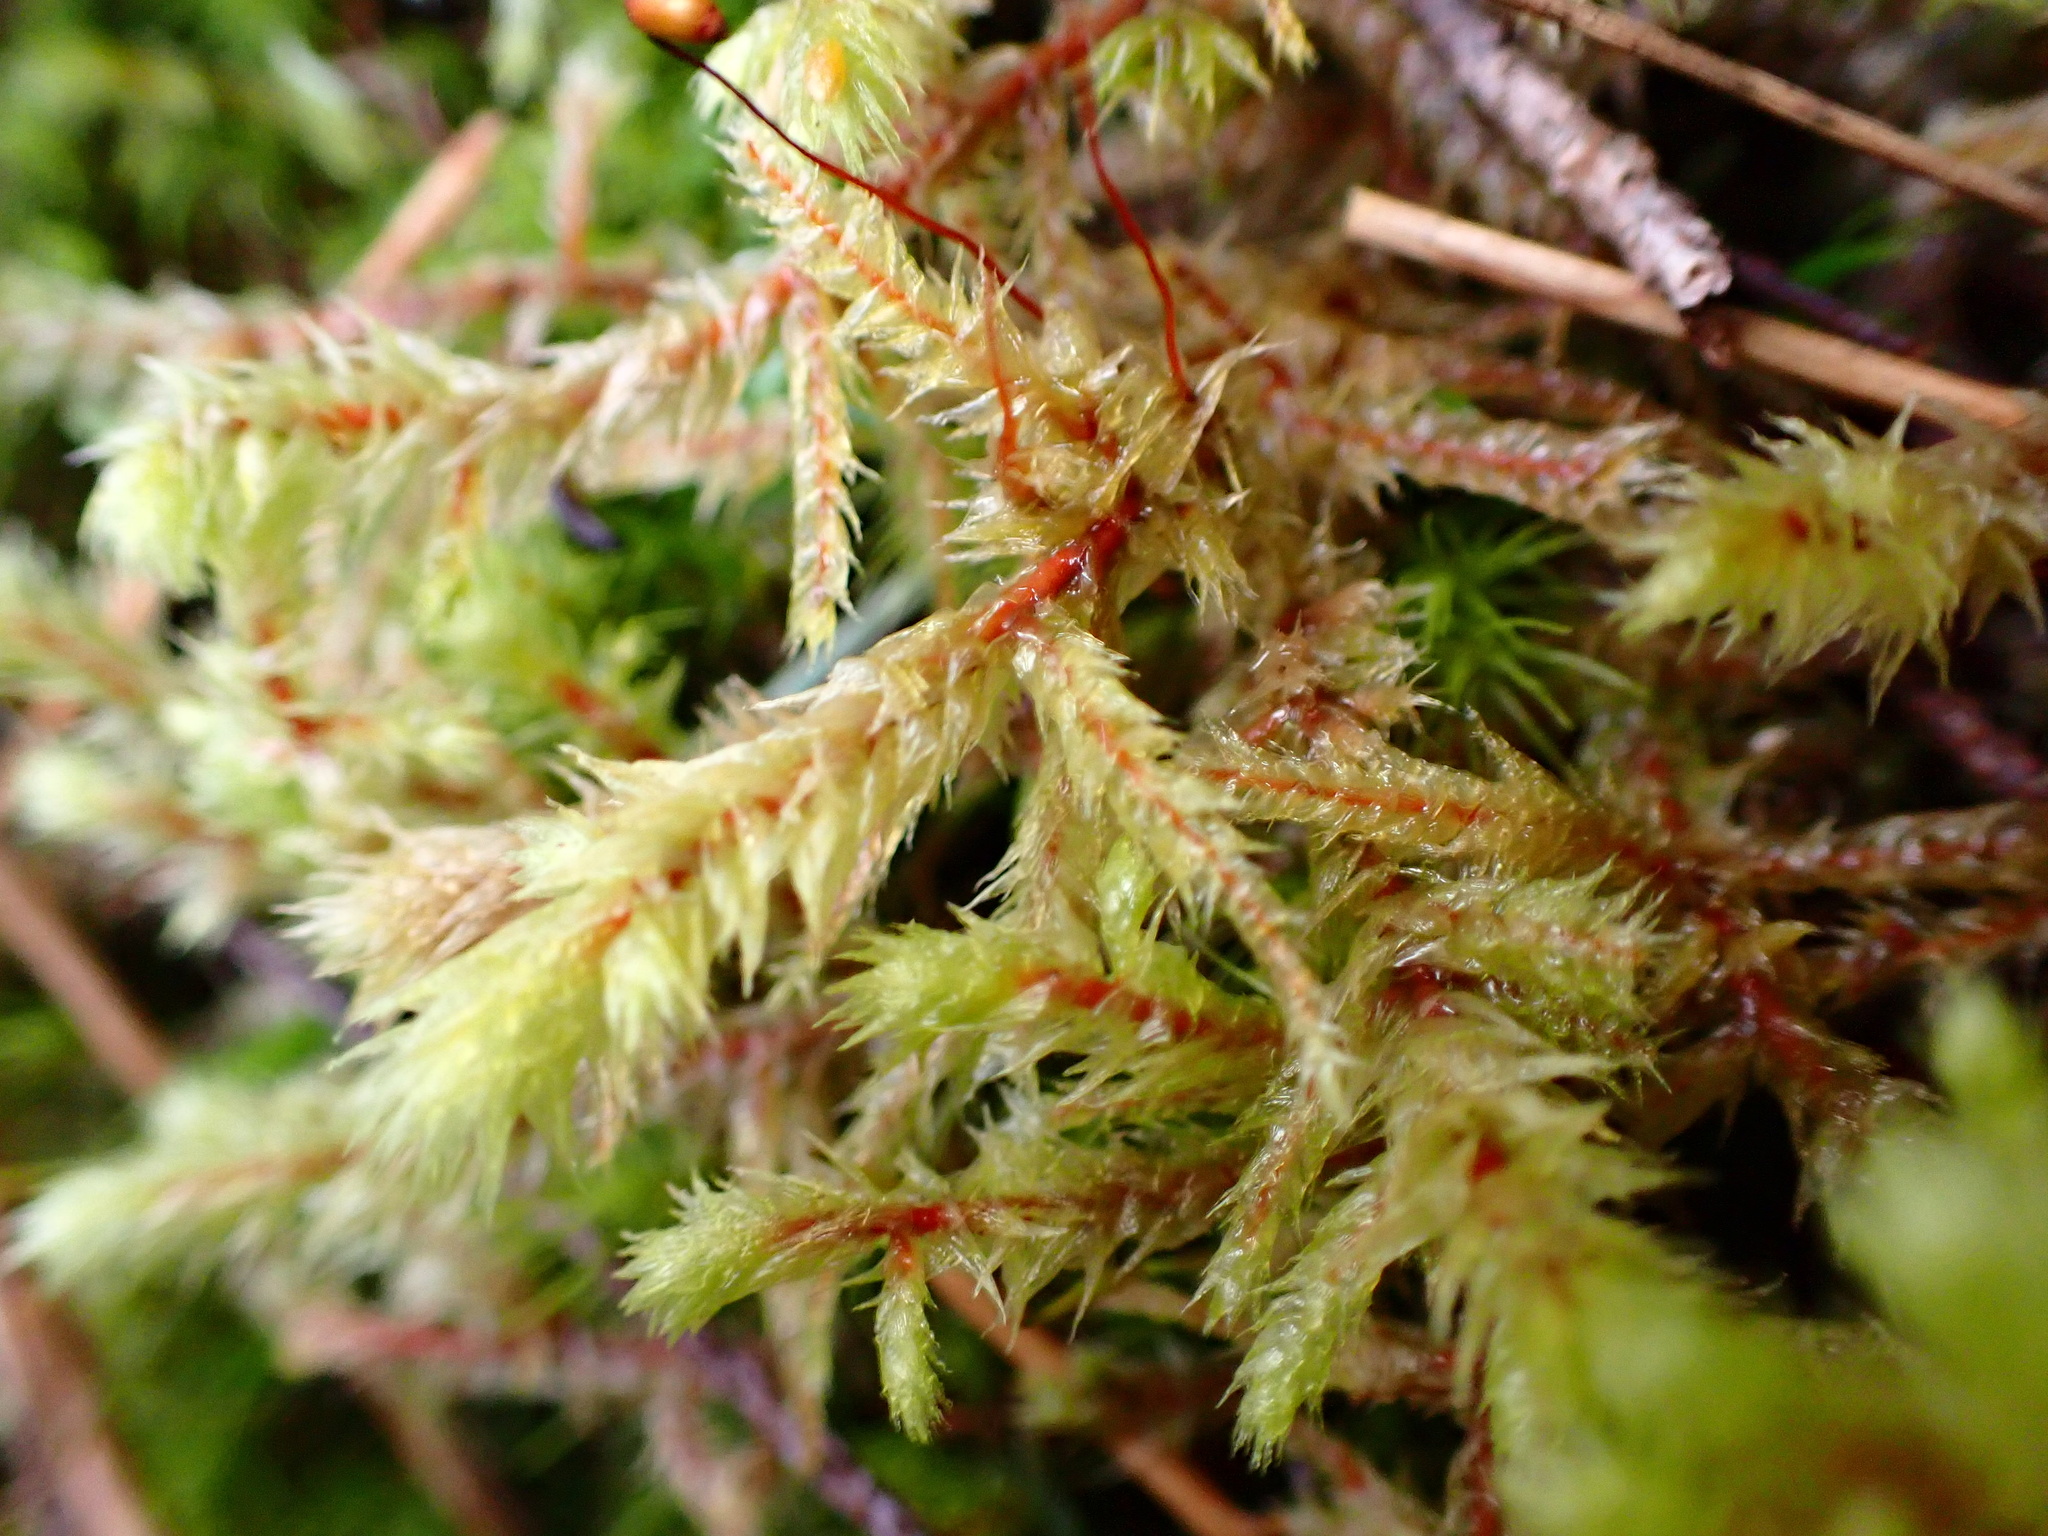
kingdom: Plantae
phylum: Bryophyta
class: Bryopsida
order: Hypnales
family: Hylocomiaceae
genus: Hylocomiadelphus
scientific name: Hylocomiadelphus triquetrus
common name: Rough goose neck moss
